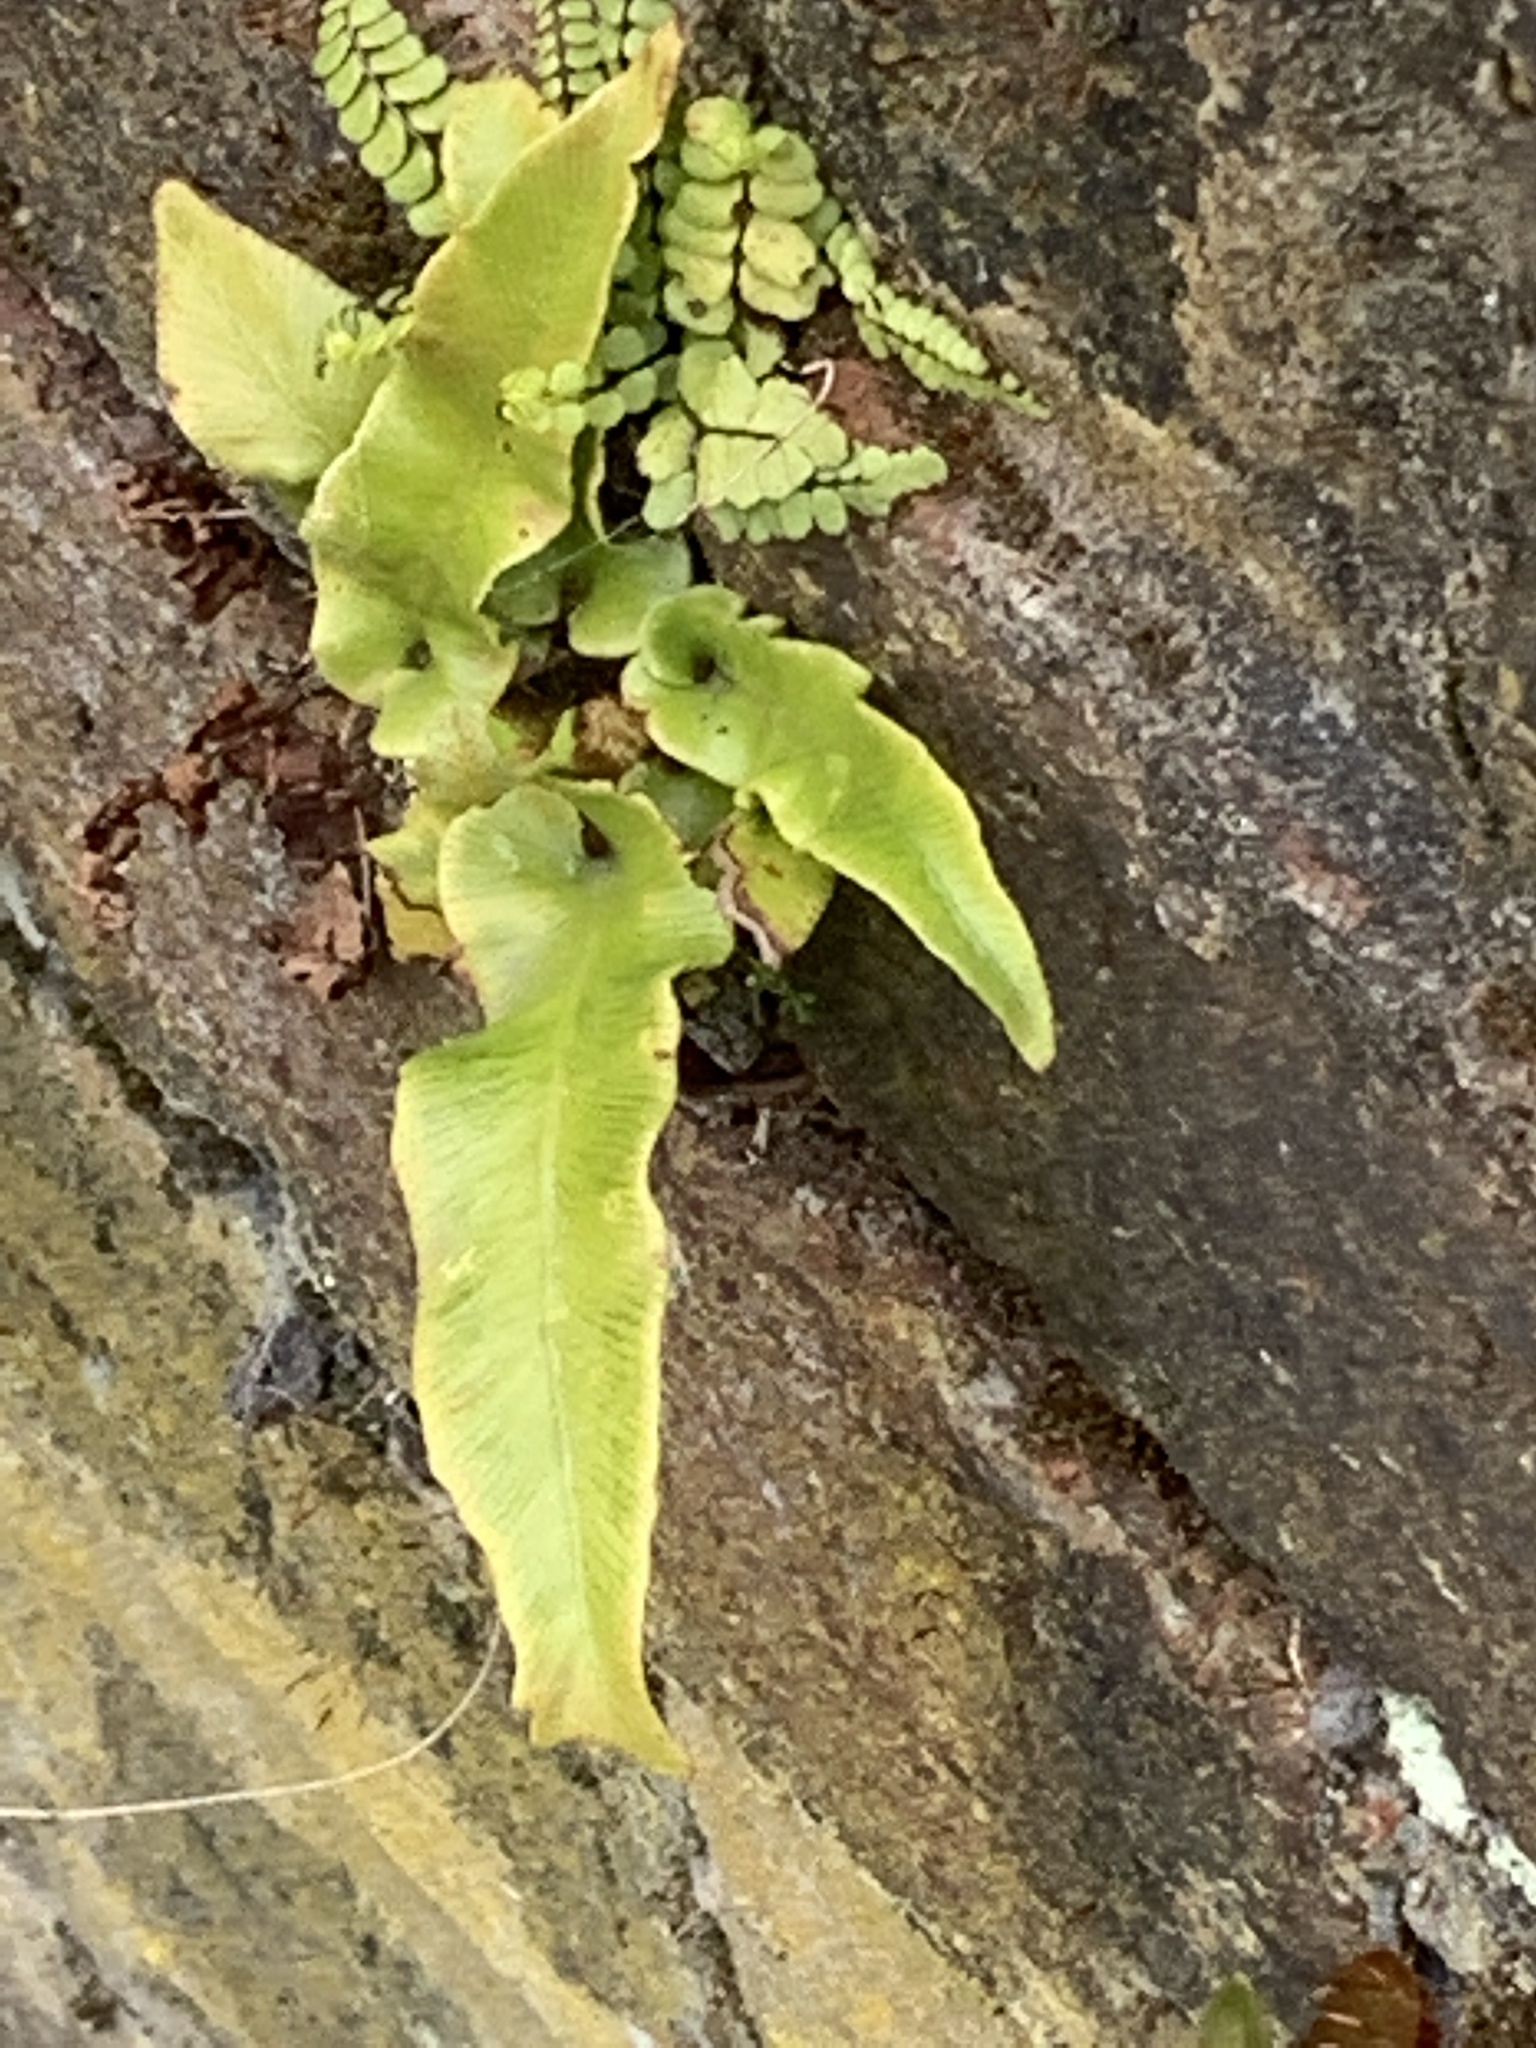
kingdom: Plantae
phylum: Tracheophyta
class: Polypodiopsida
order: Polypodiales
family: Aspleniaceae
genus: Asplenium
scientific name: Asplenium scolopendrium
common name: Hart's-tongue fern
